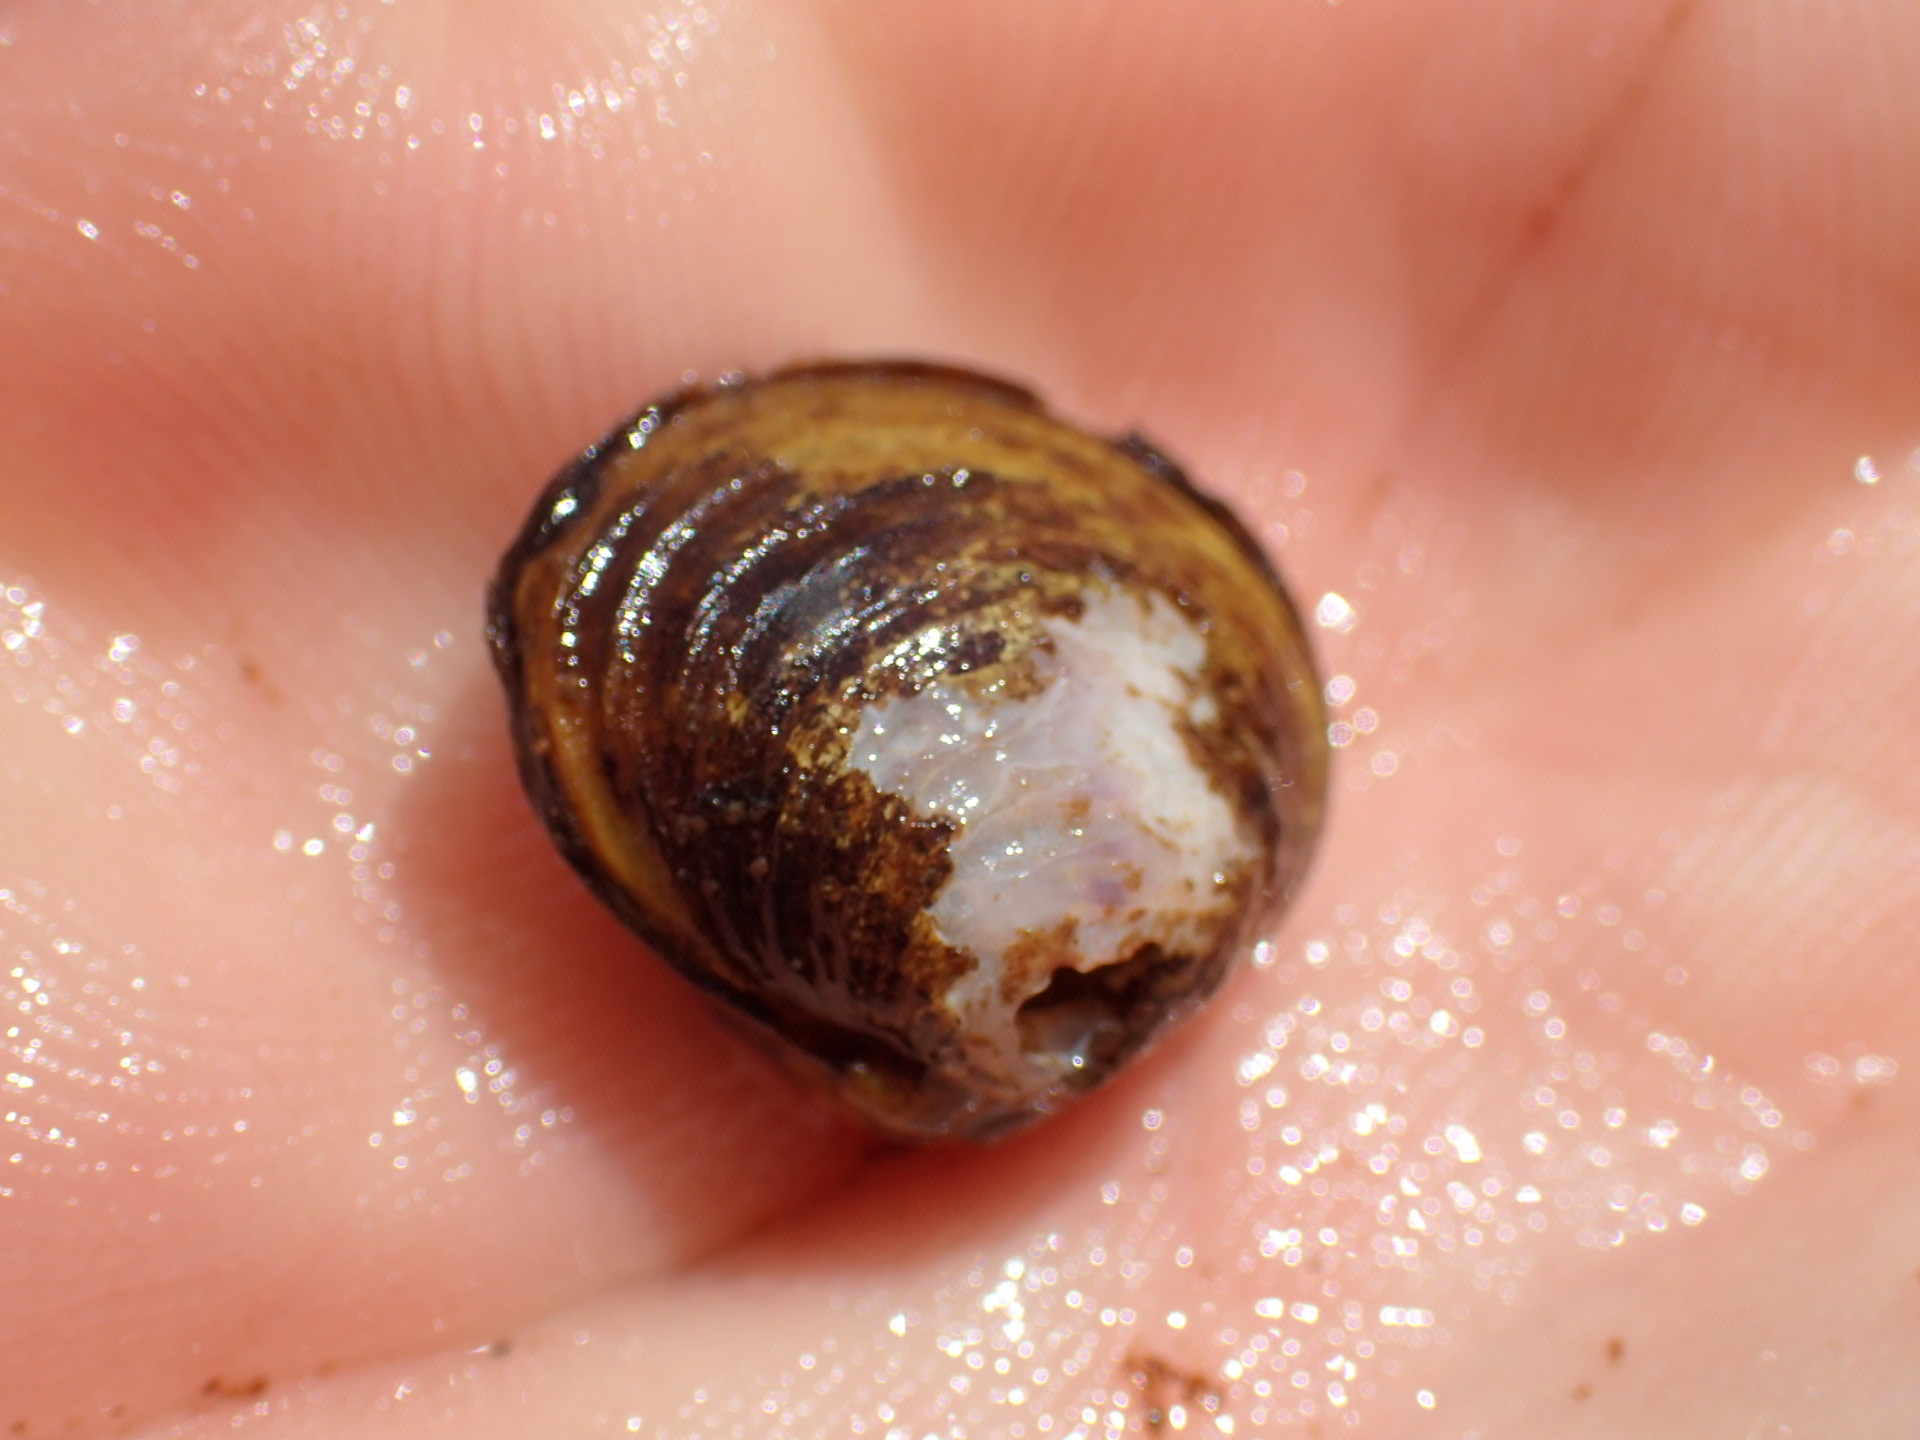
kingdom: Animalia
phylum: Mollusca
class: Bivalvia
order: Venerida
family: Cyrenidae
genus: Corbicula
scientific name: Corbicula fluminea
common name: Asian clam
